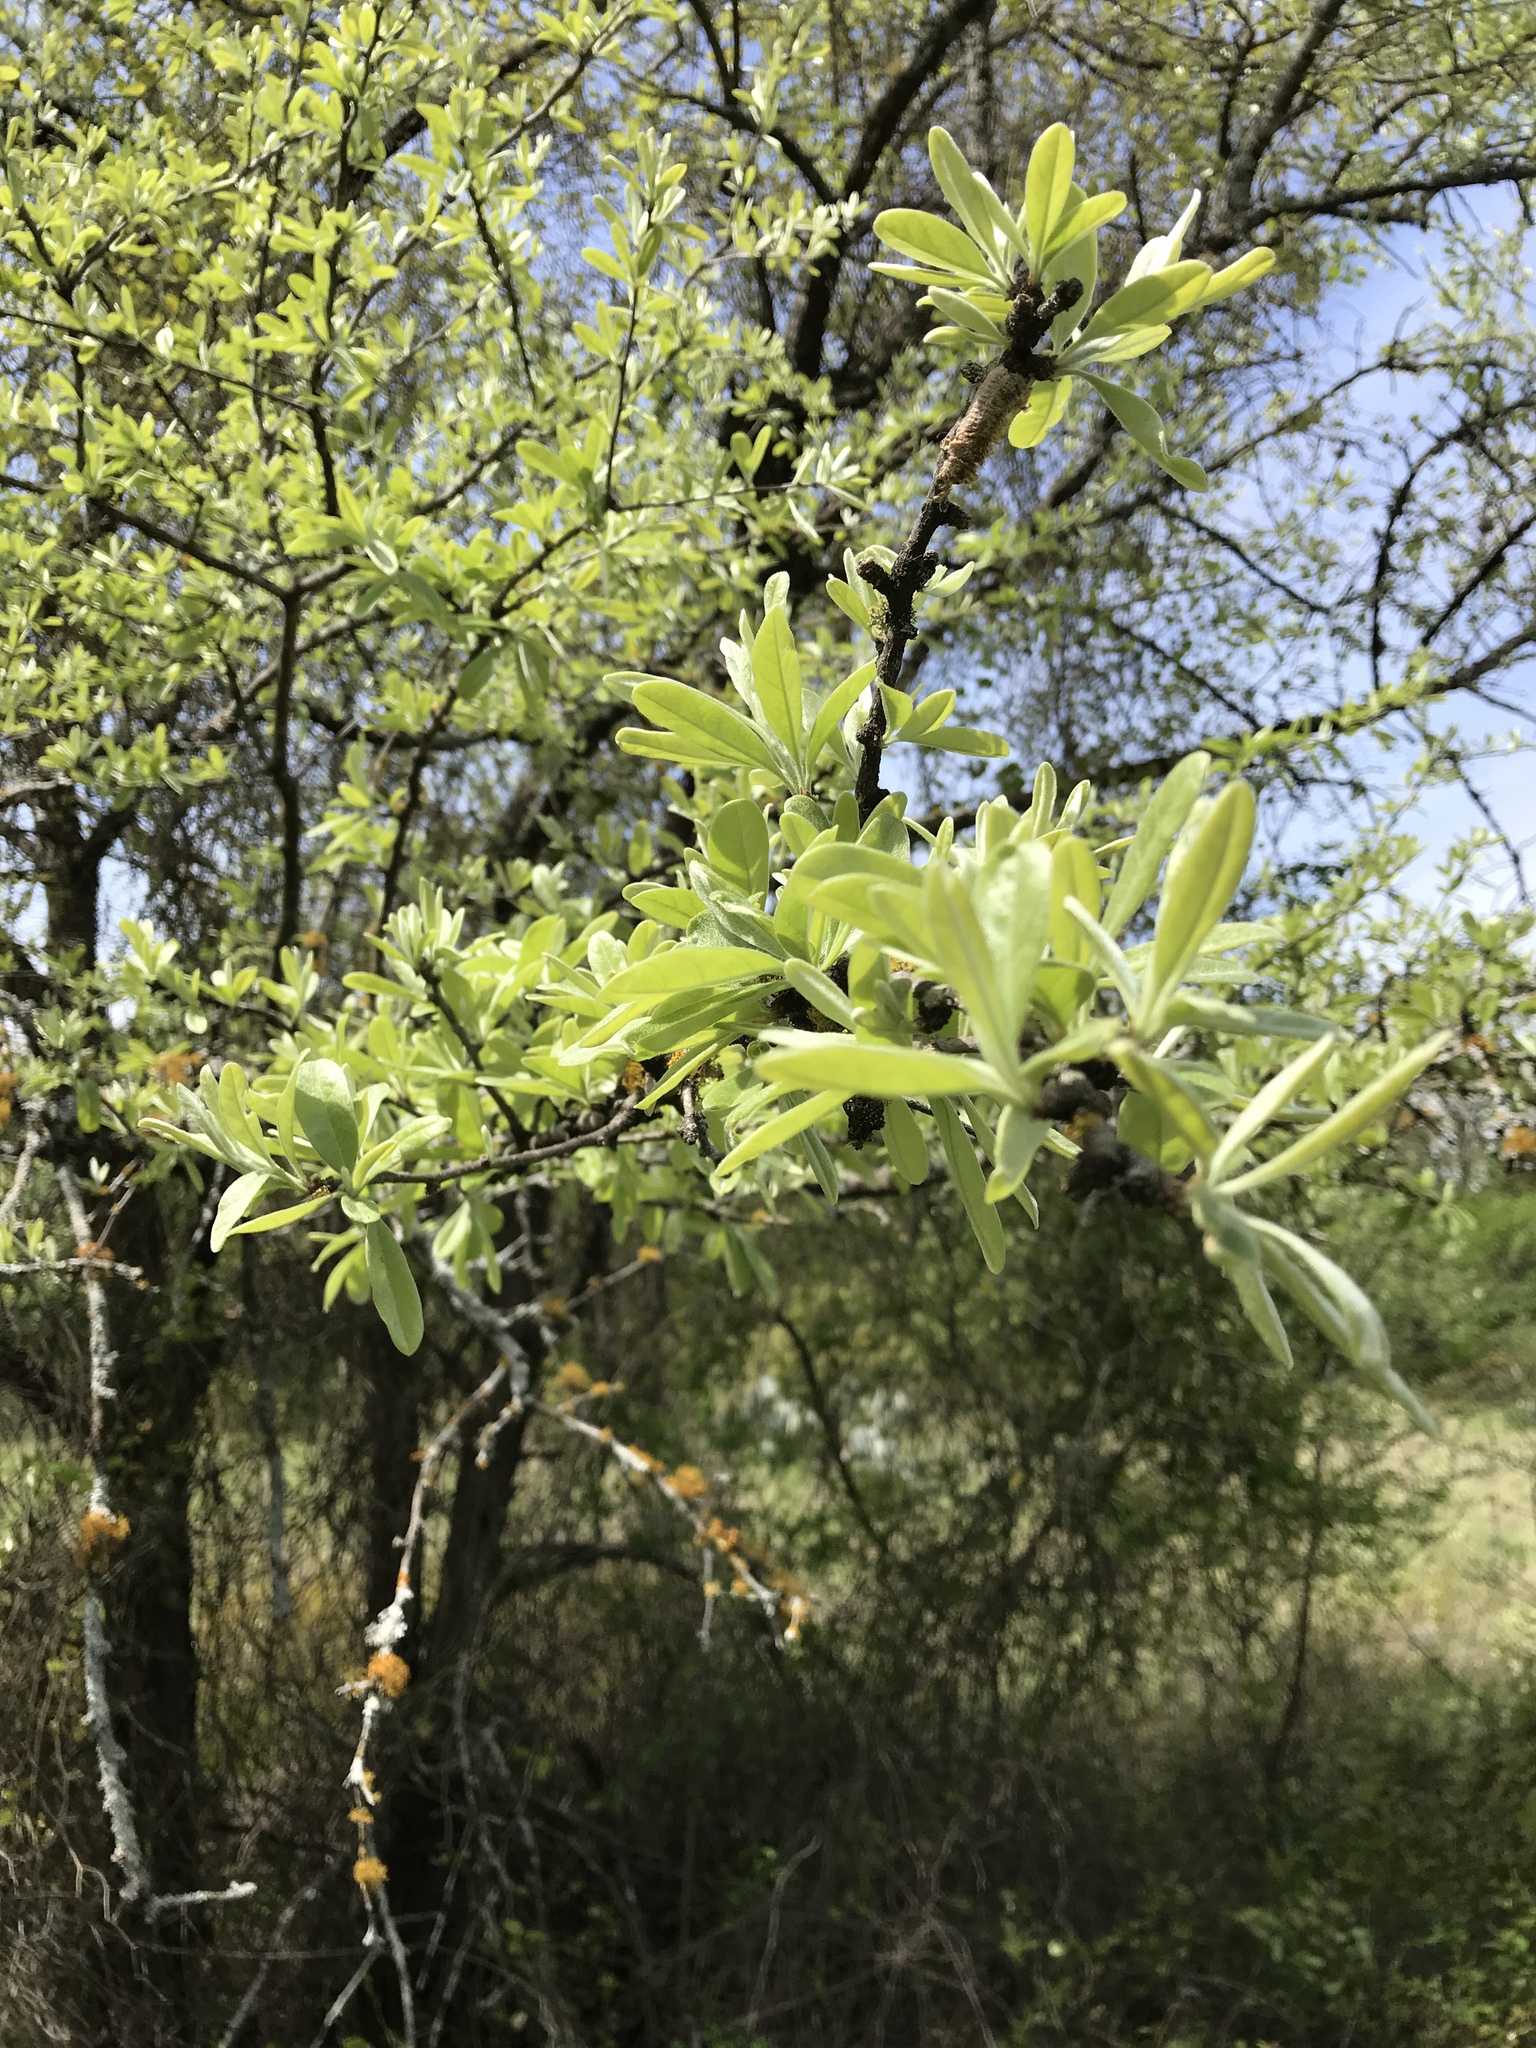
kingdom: Plantae
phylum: Tracheophyta
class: Magnoliopsida
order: Ericales
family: Sapotaceae
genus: Sideroxylon
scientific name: Sideroxylon lanuginosum
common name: Chittamwood
